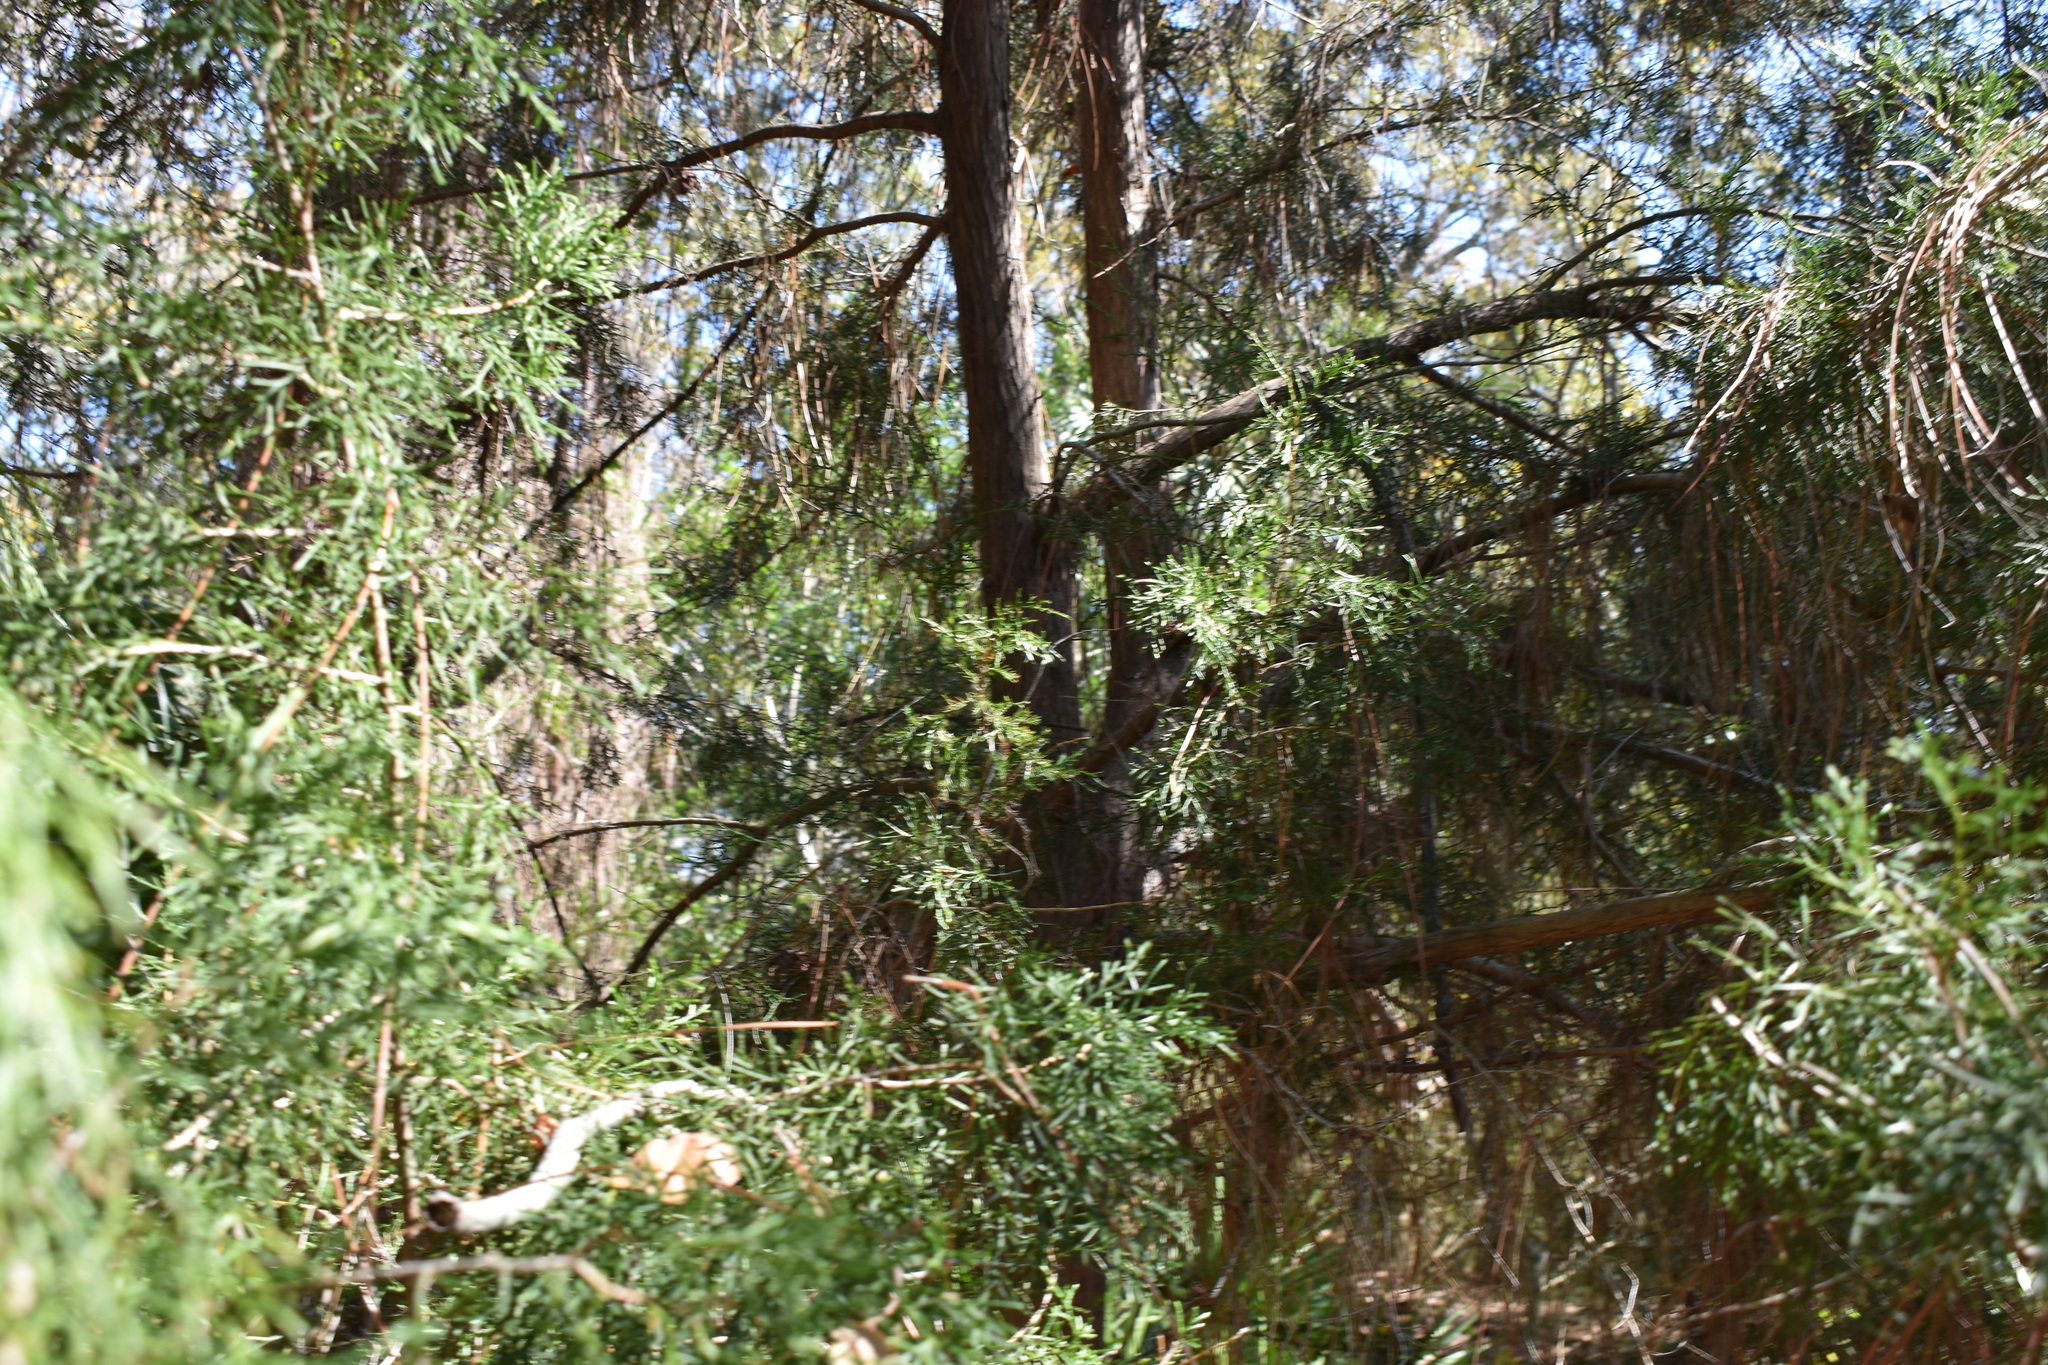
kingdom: Plantae
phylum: Tracheophyta
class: Pinopsida
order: Pinales
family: Cupressaceae
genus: Juniperus
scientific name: Juniperus virginiana
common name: Red juniper
